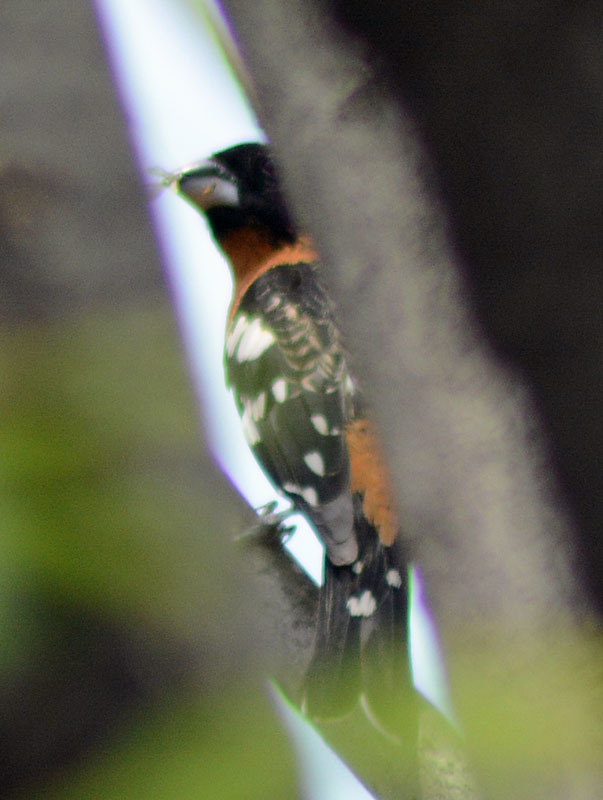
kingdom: Animalia
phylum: Chordata
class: Aves
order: Passeriformes
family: Cardinalidae
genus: Pheucticus
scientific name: Pheucticus melanocephalus
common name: Black-headed grosbeak
